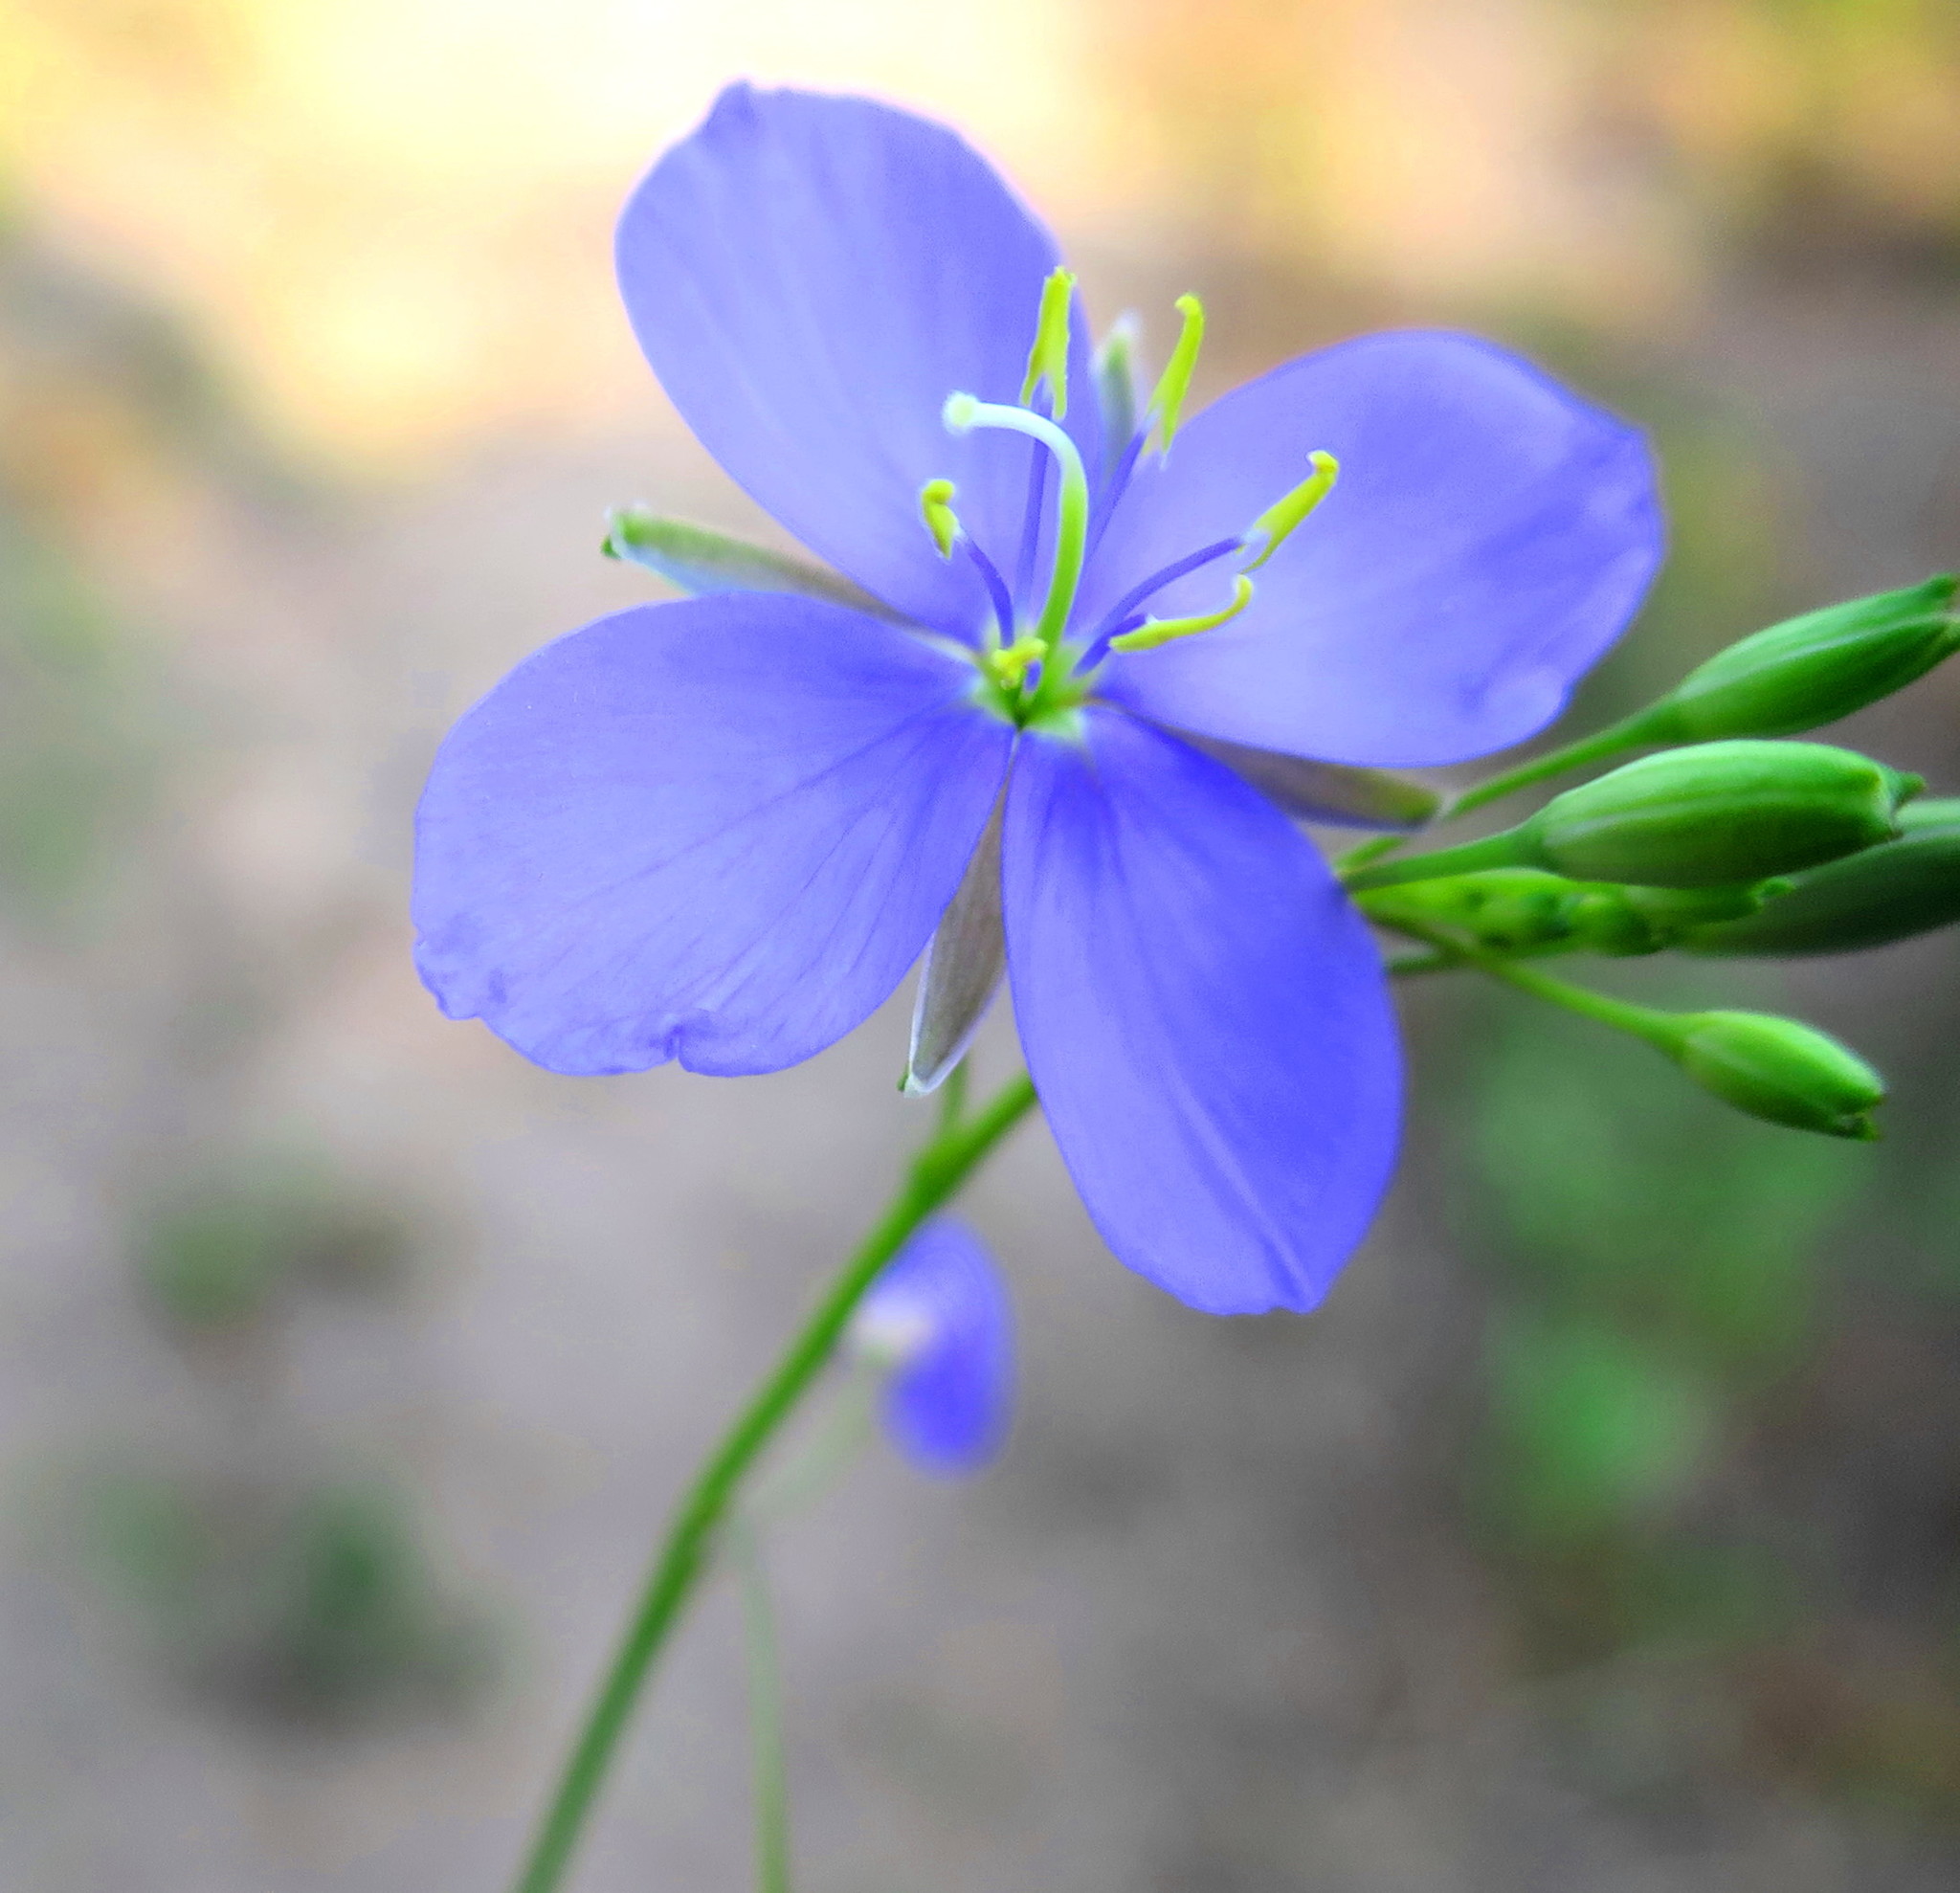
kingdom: Plantae
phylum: Tracheophyta
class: Magnoliopsida
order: Brassicales
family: Brassicaceae
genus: Heliophila
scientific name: Heliophila subulata
